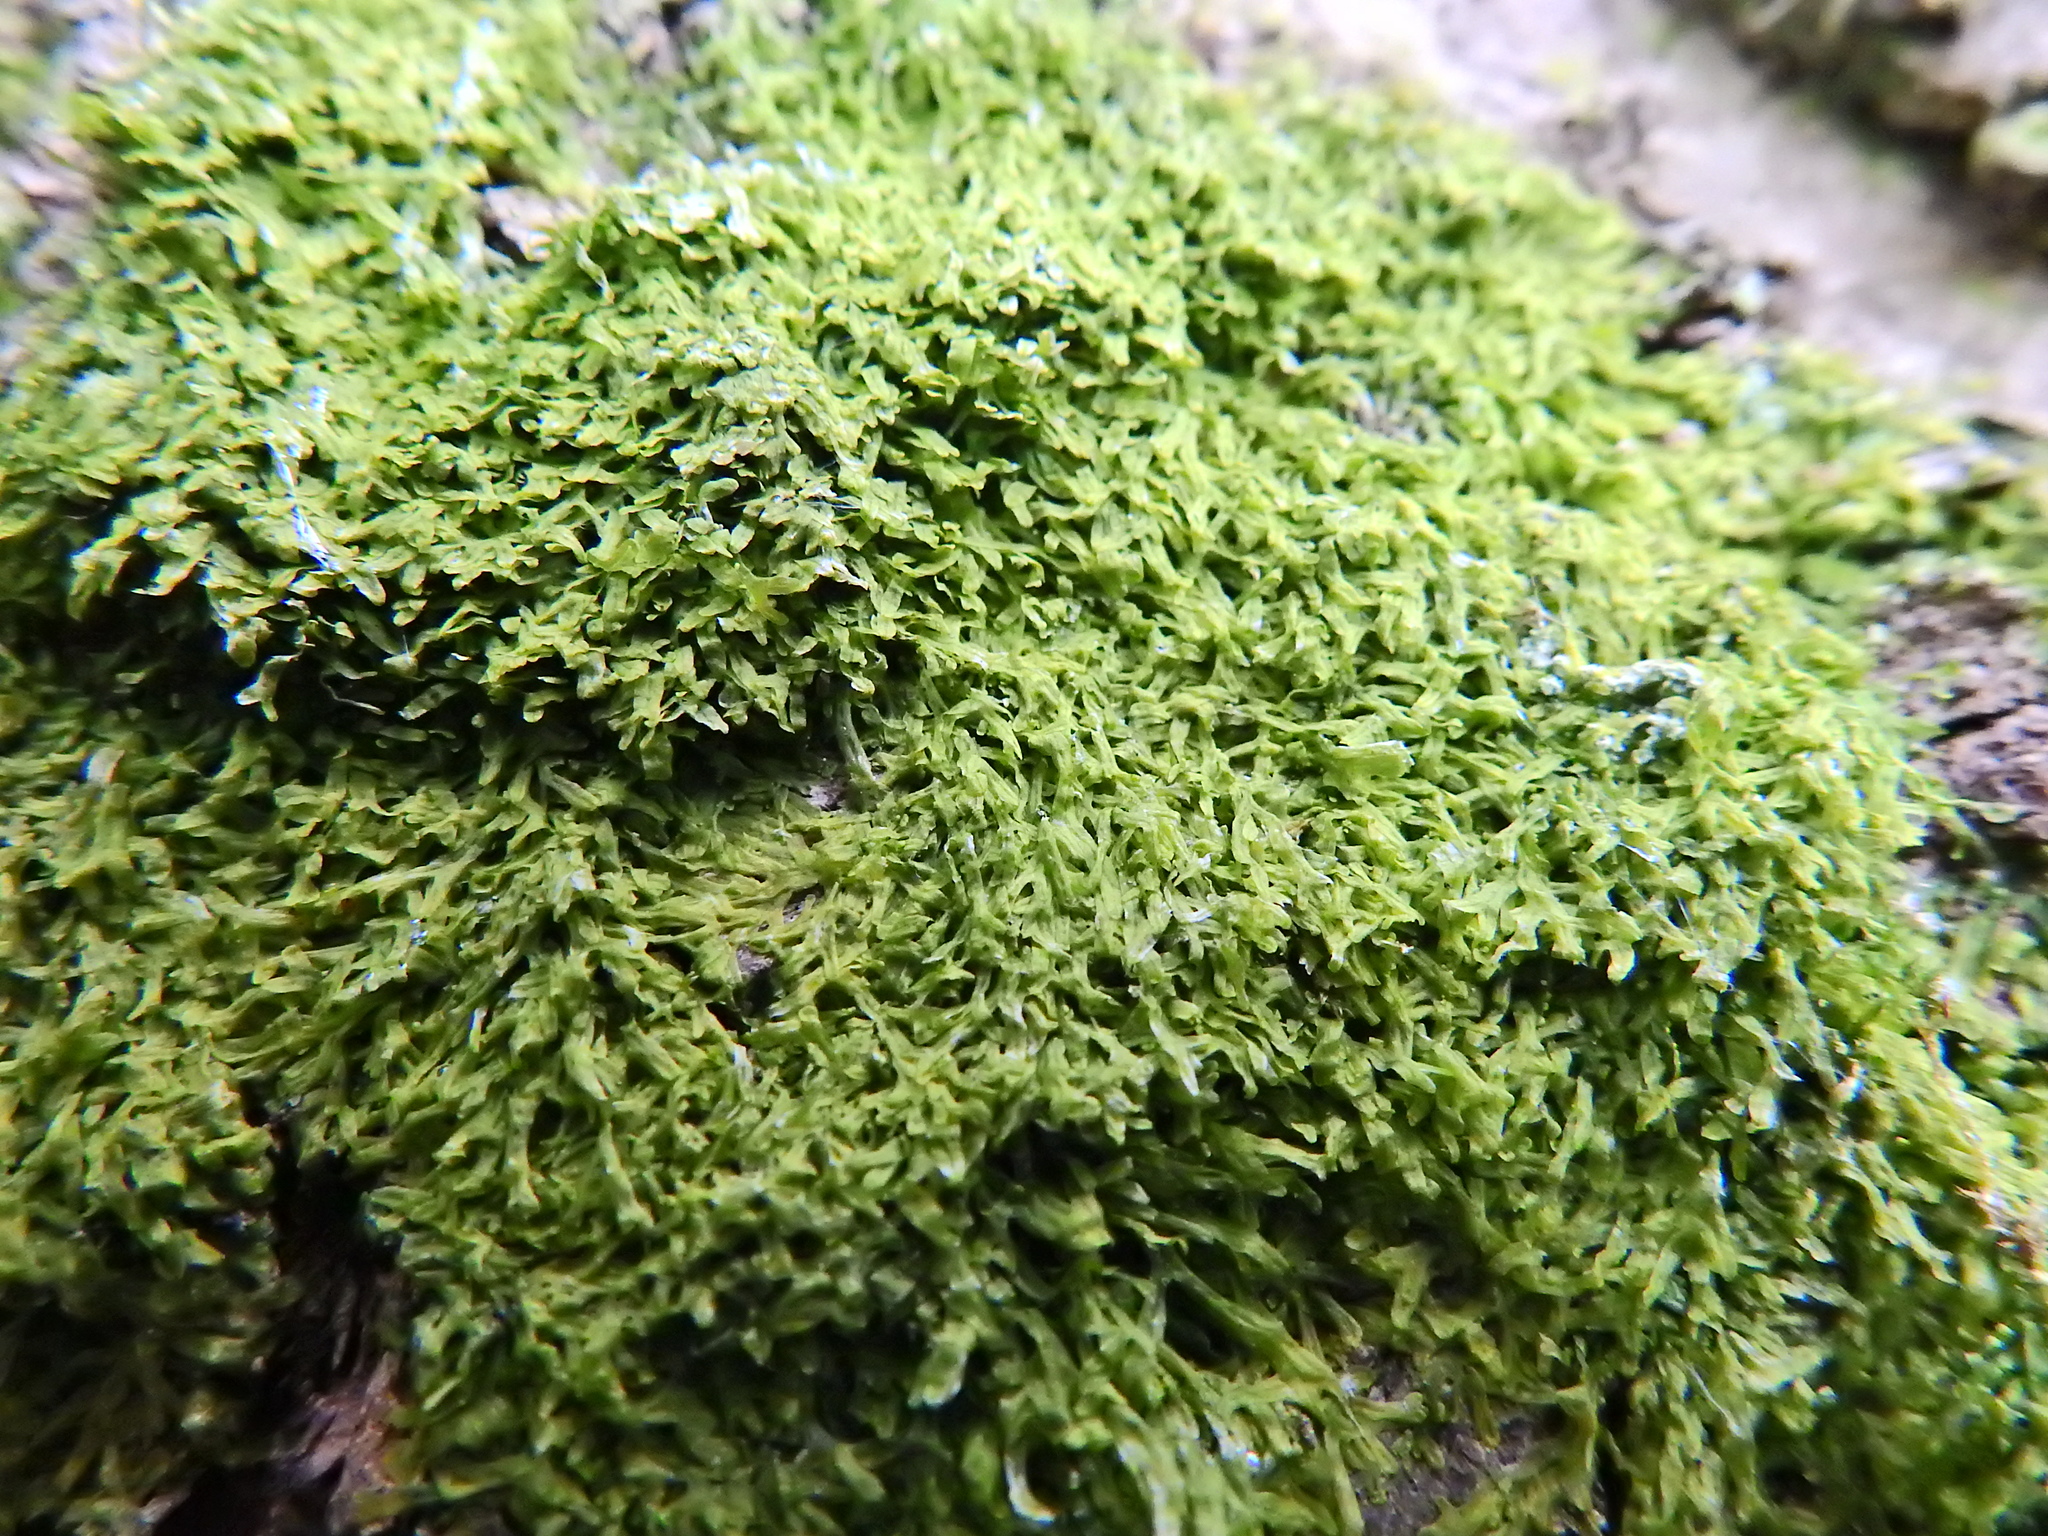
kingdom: Plantae
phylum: Marchantiophyta
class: Jungermanniopsida
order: Metzgeriales
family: Metzgeriaceae
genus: Metzgeria
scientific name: Metzgeria furcata
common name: Forked veilwort
